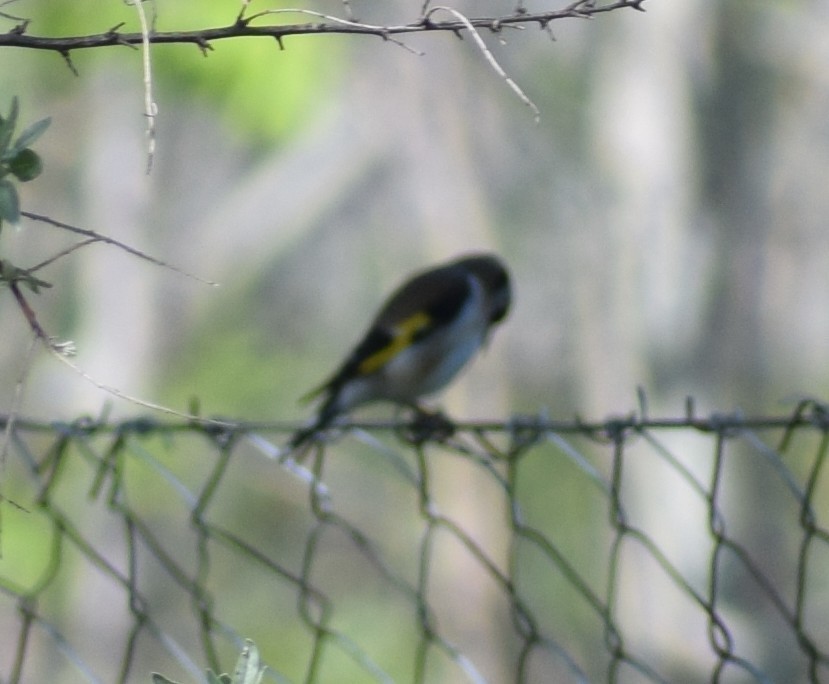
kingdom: Animalia
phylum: Chordata
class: Aves
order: Passeriformes
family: Fringillidae
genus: Carduelis
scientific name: Carduelis carduelis
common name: European goldfinch
